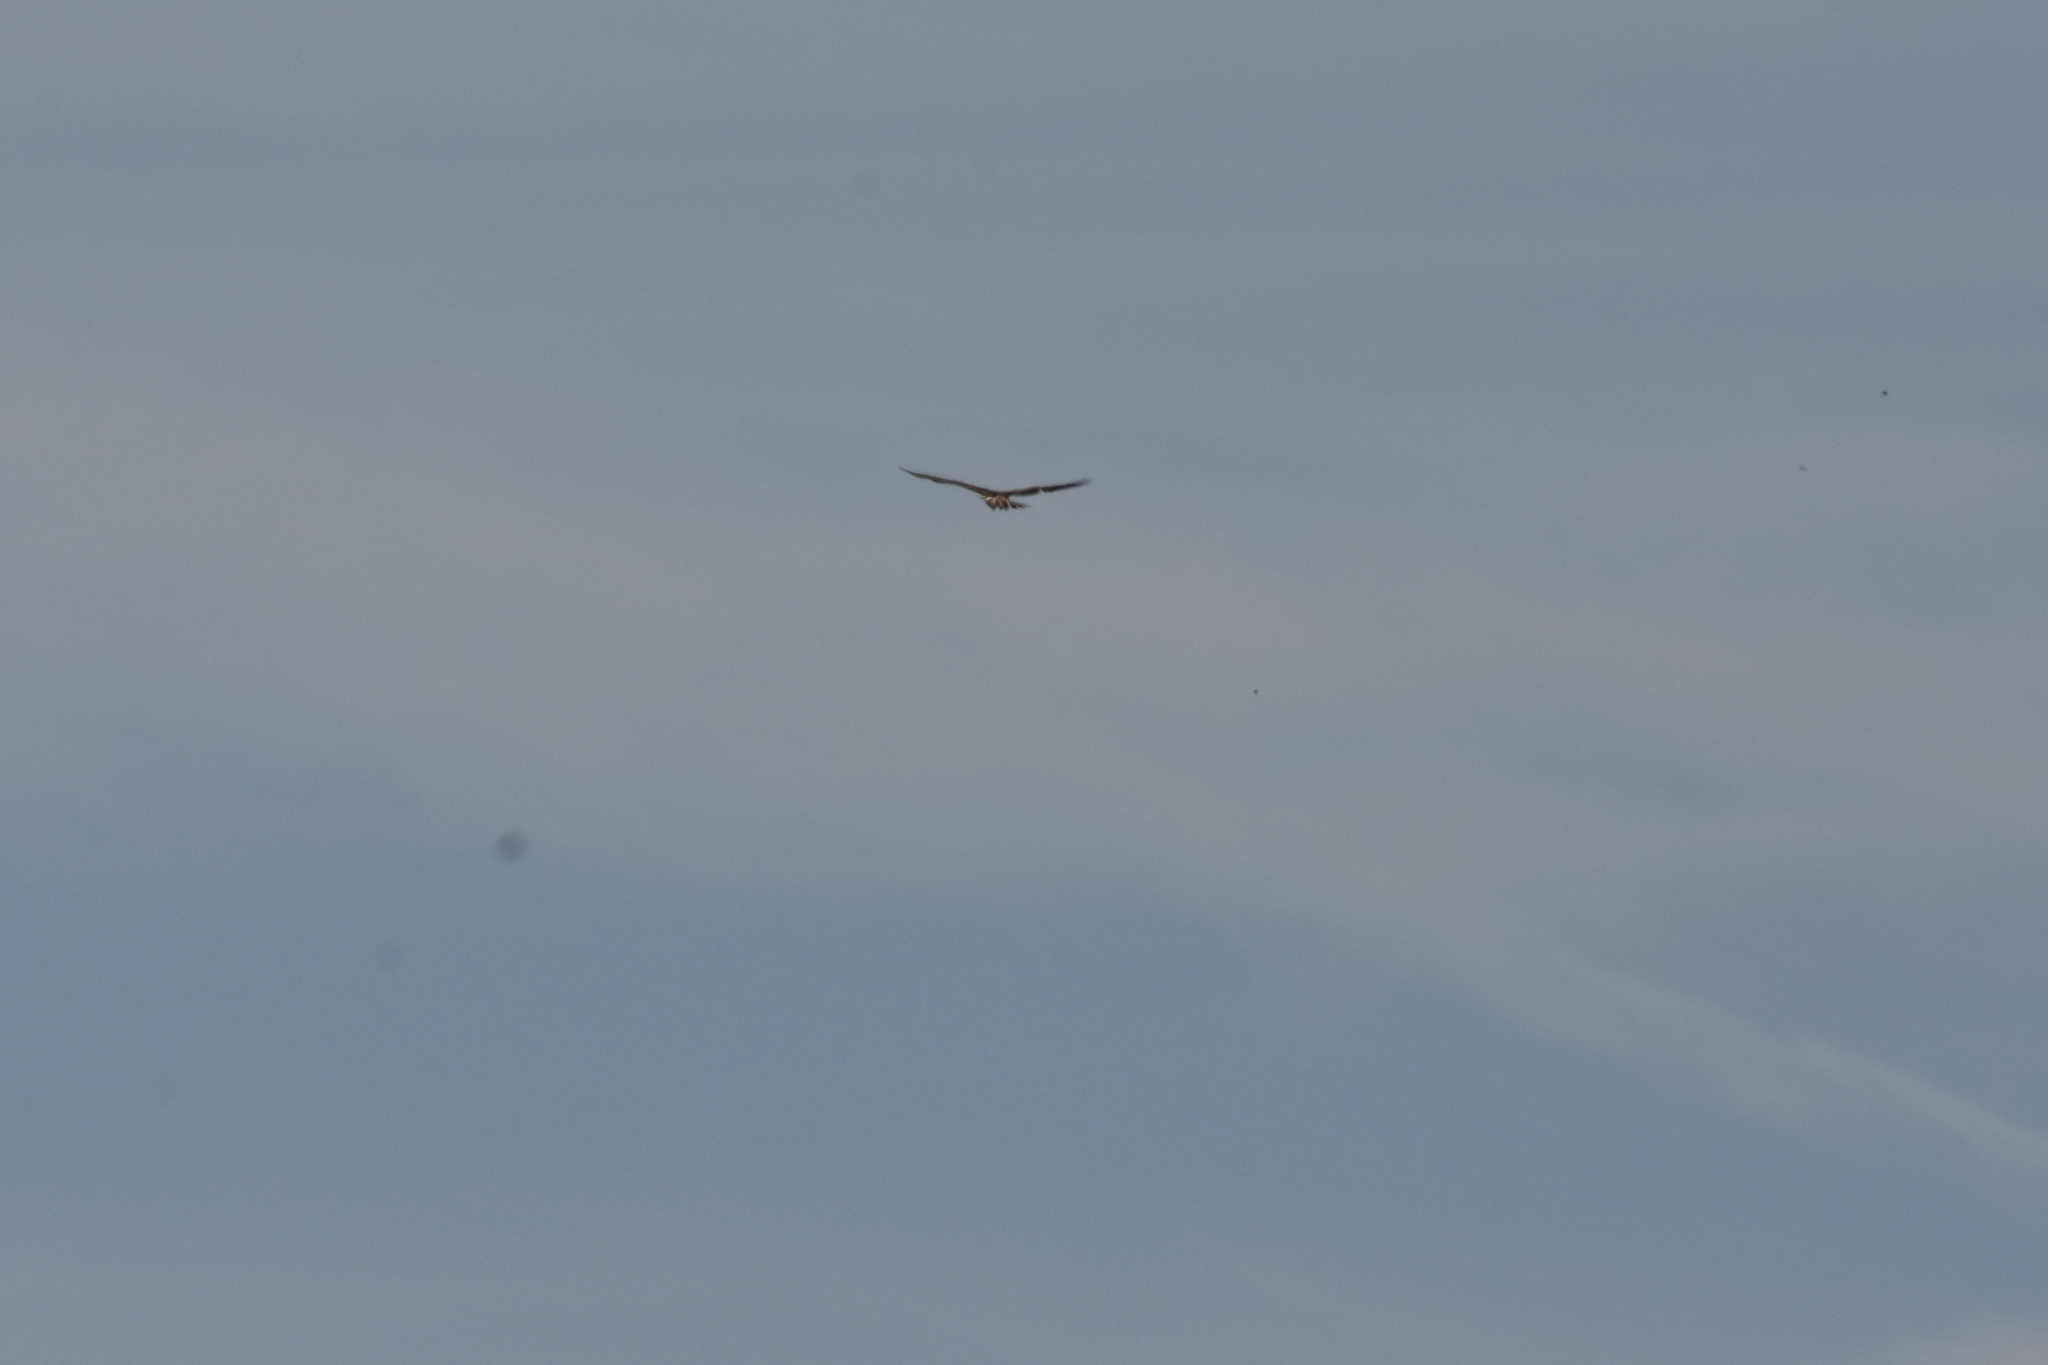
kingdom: Animalia
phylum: Chordata
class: Aves
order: Accipitriformes
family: Accipitridae
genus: Circaetus
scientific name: Circaetus gallicus
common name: Short-toed snake eagle
